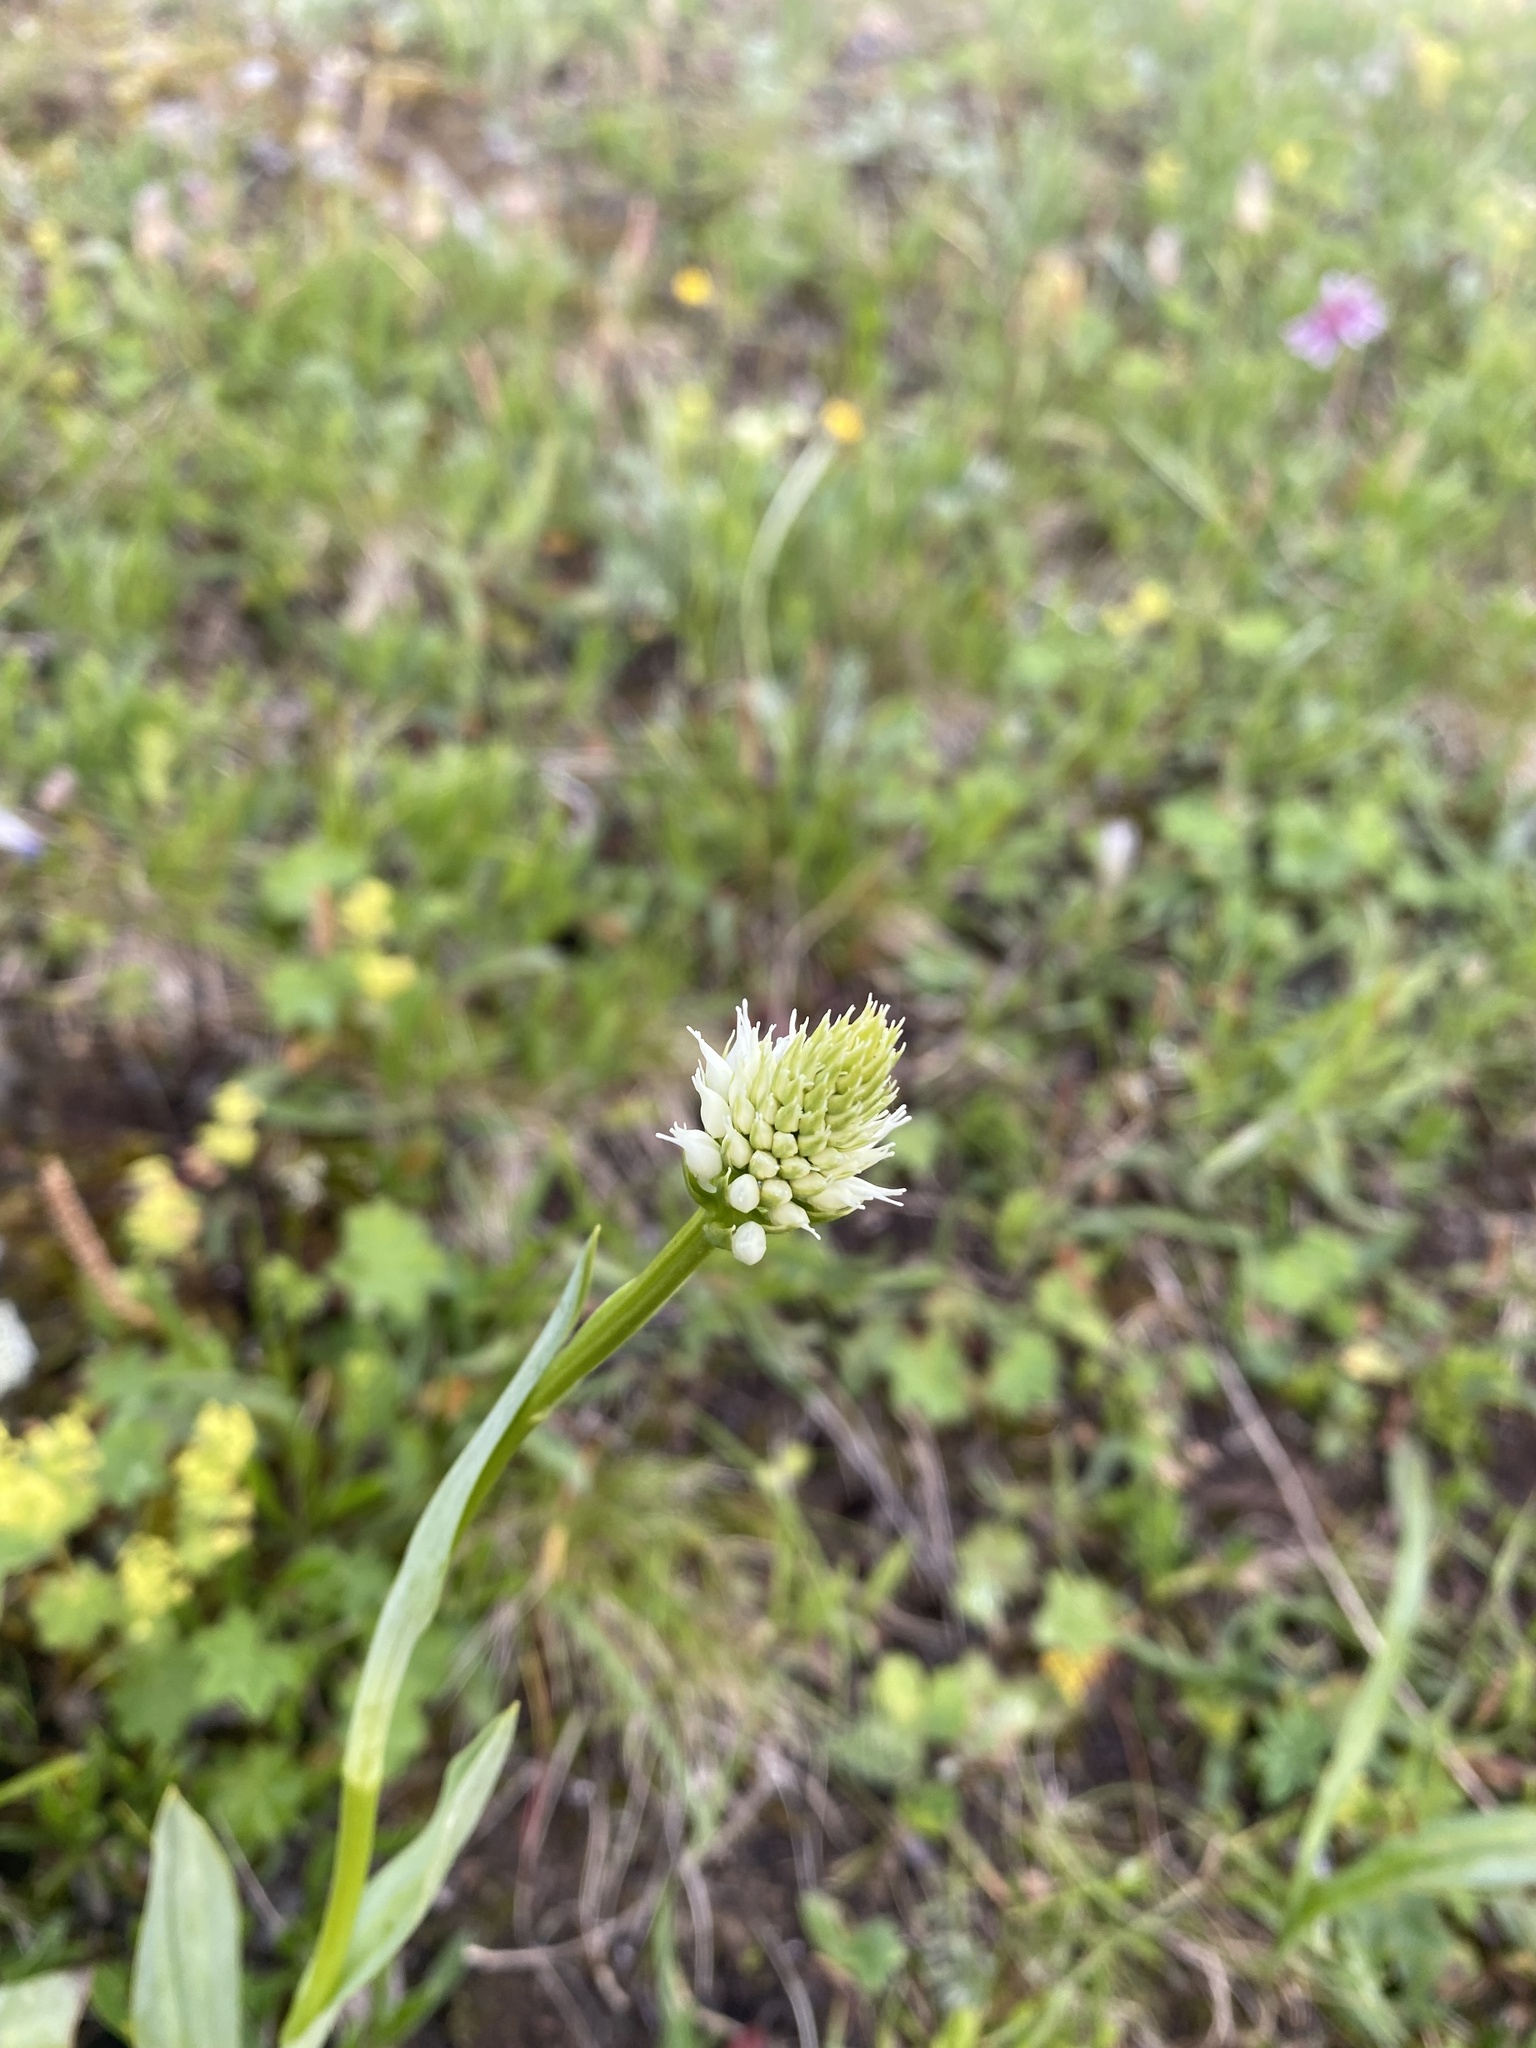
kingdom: Plantae
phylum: Tracheophyta
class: Liliopsida
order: Asparagales
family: Orchidaceae
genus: Traunsteinera
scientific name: Traunsteinera sphaerica
